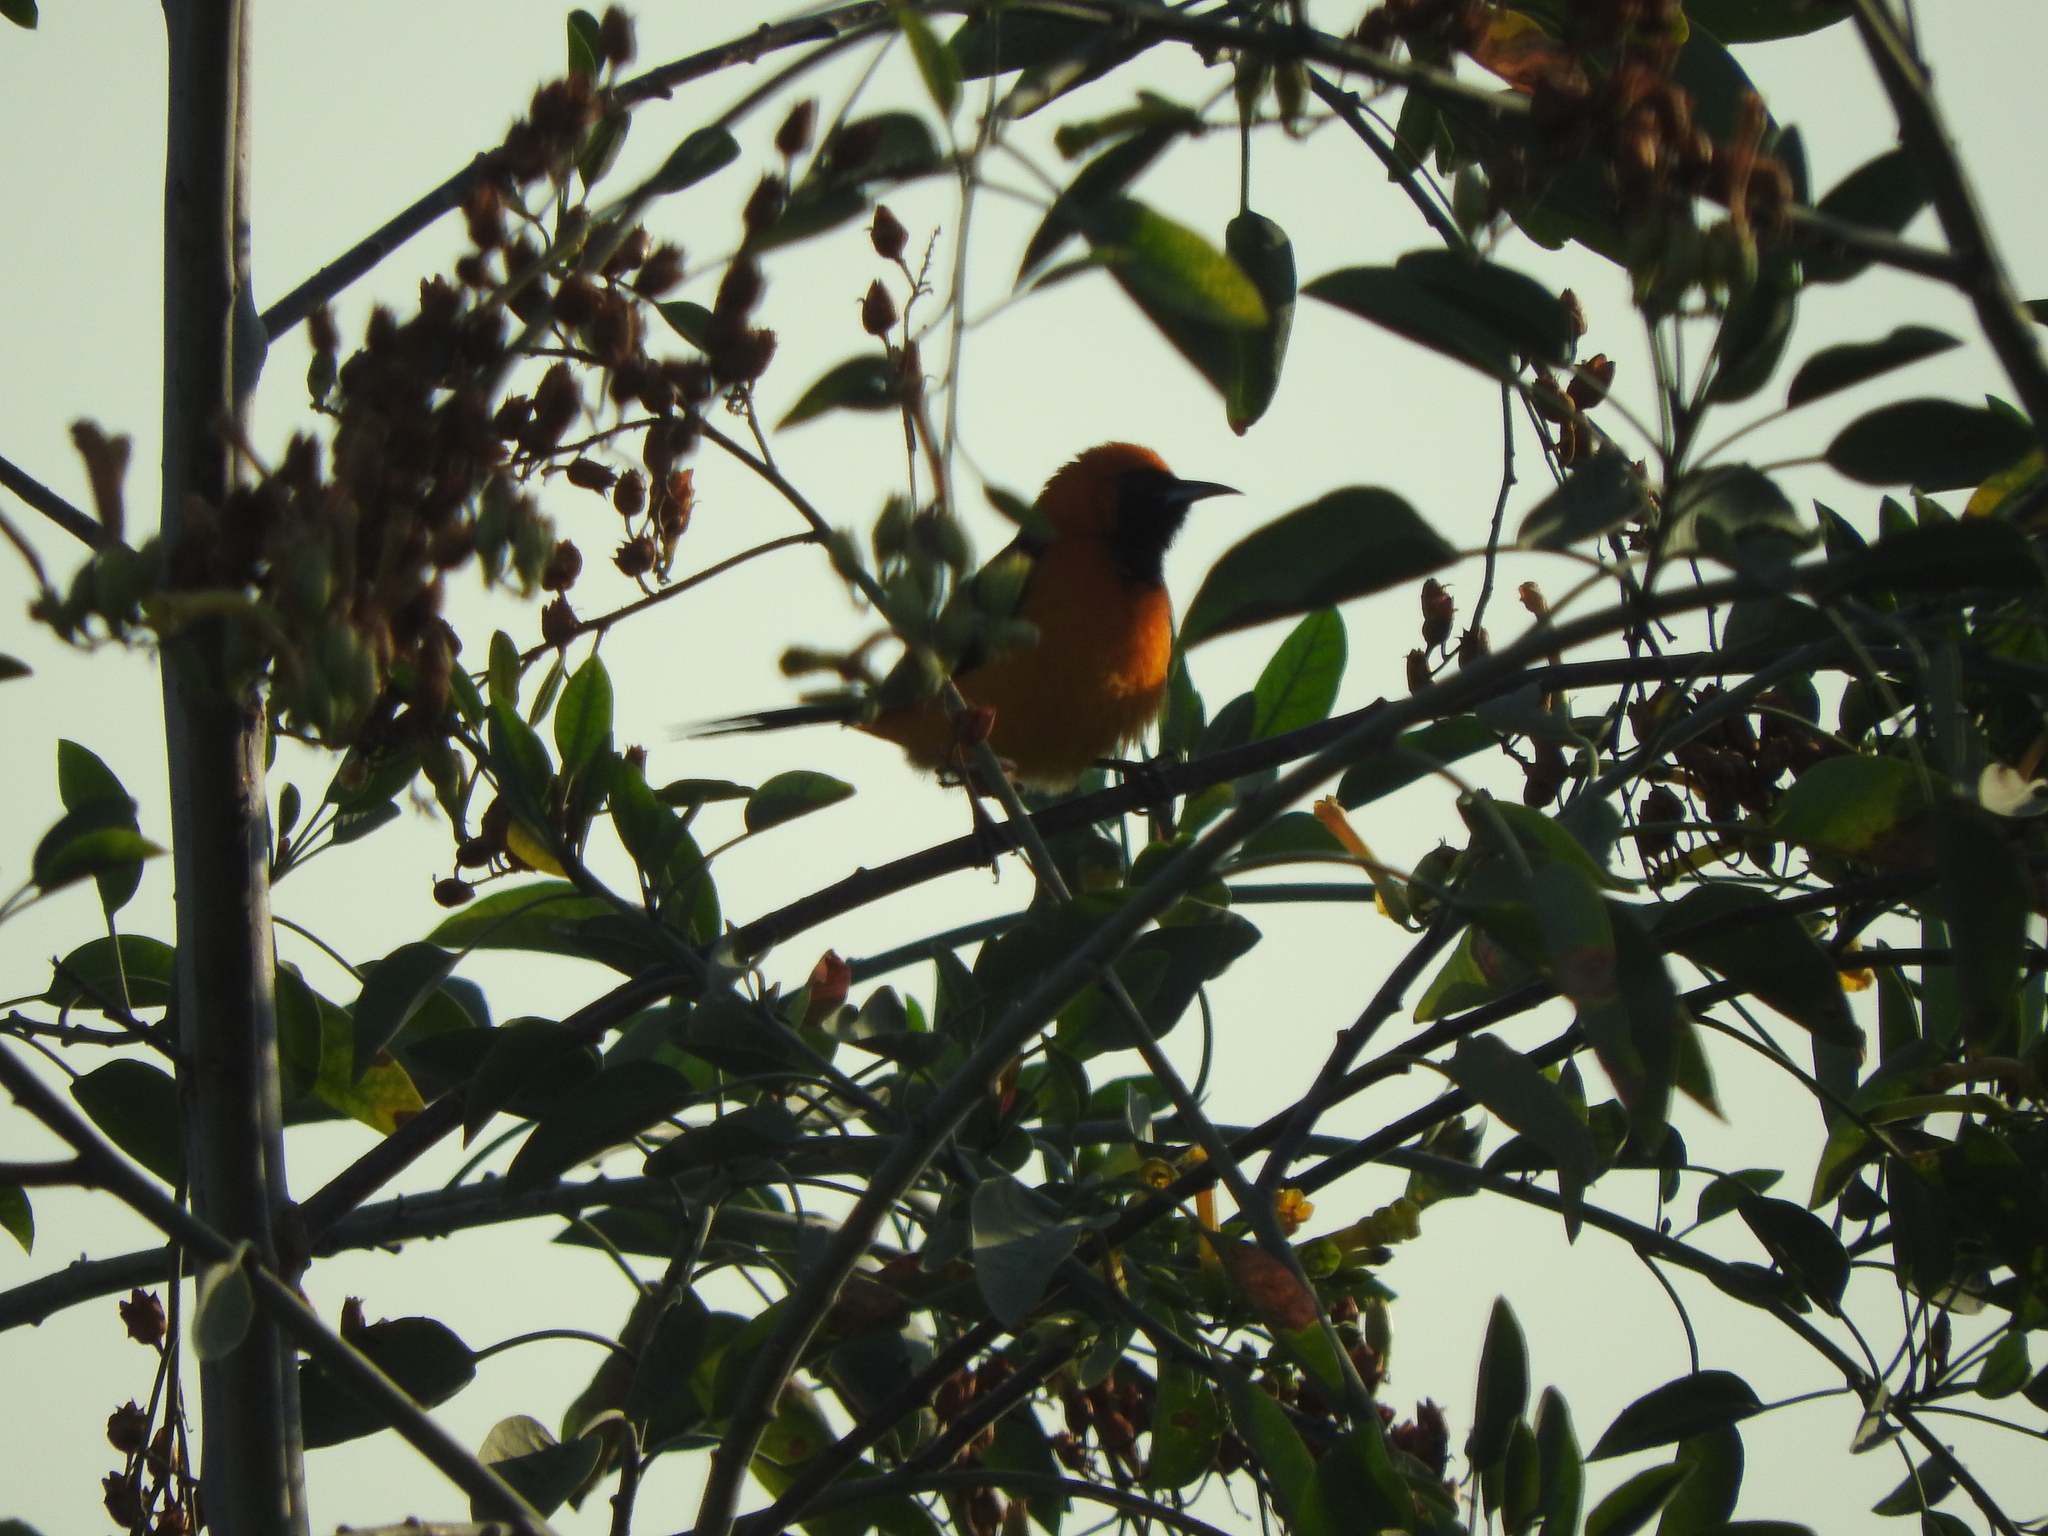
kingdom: Animalia
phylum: Chordata
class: Aves
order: Passeriformes
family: Icteridae
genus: Icterus
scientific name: Icterus cucullatus
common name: Hooded oriole
